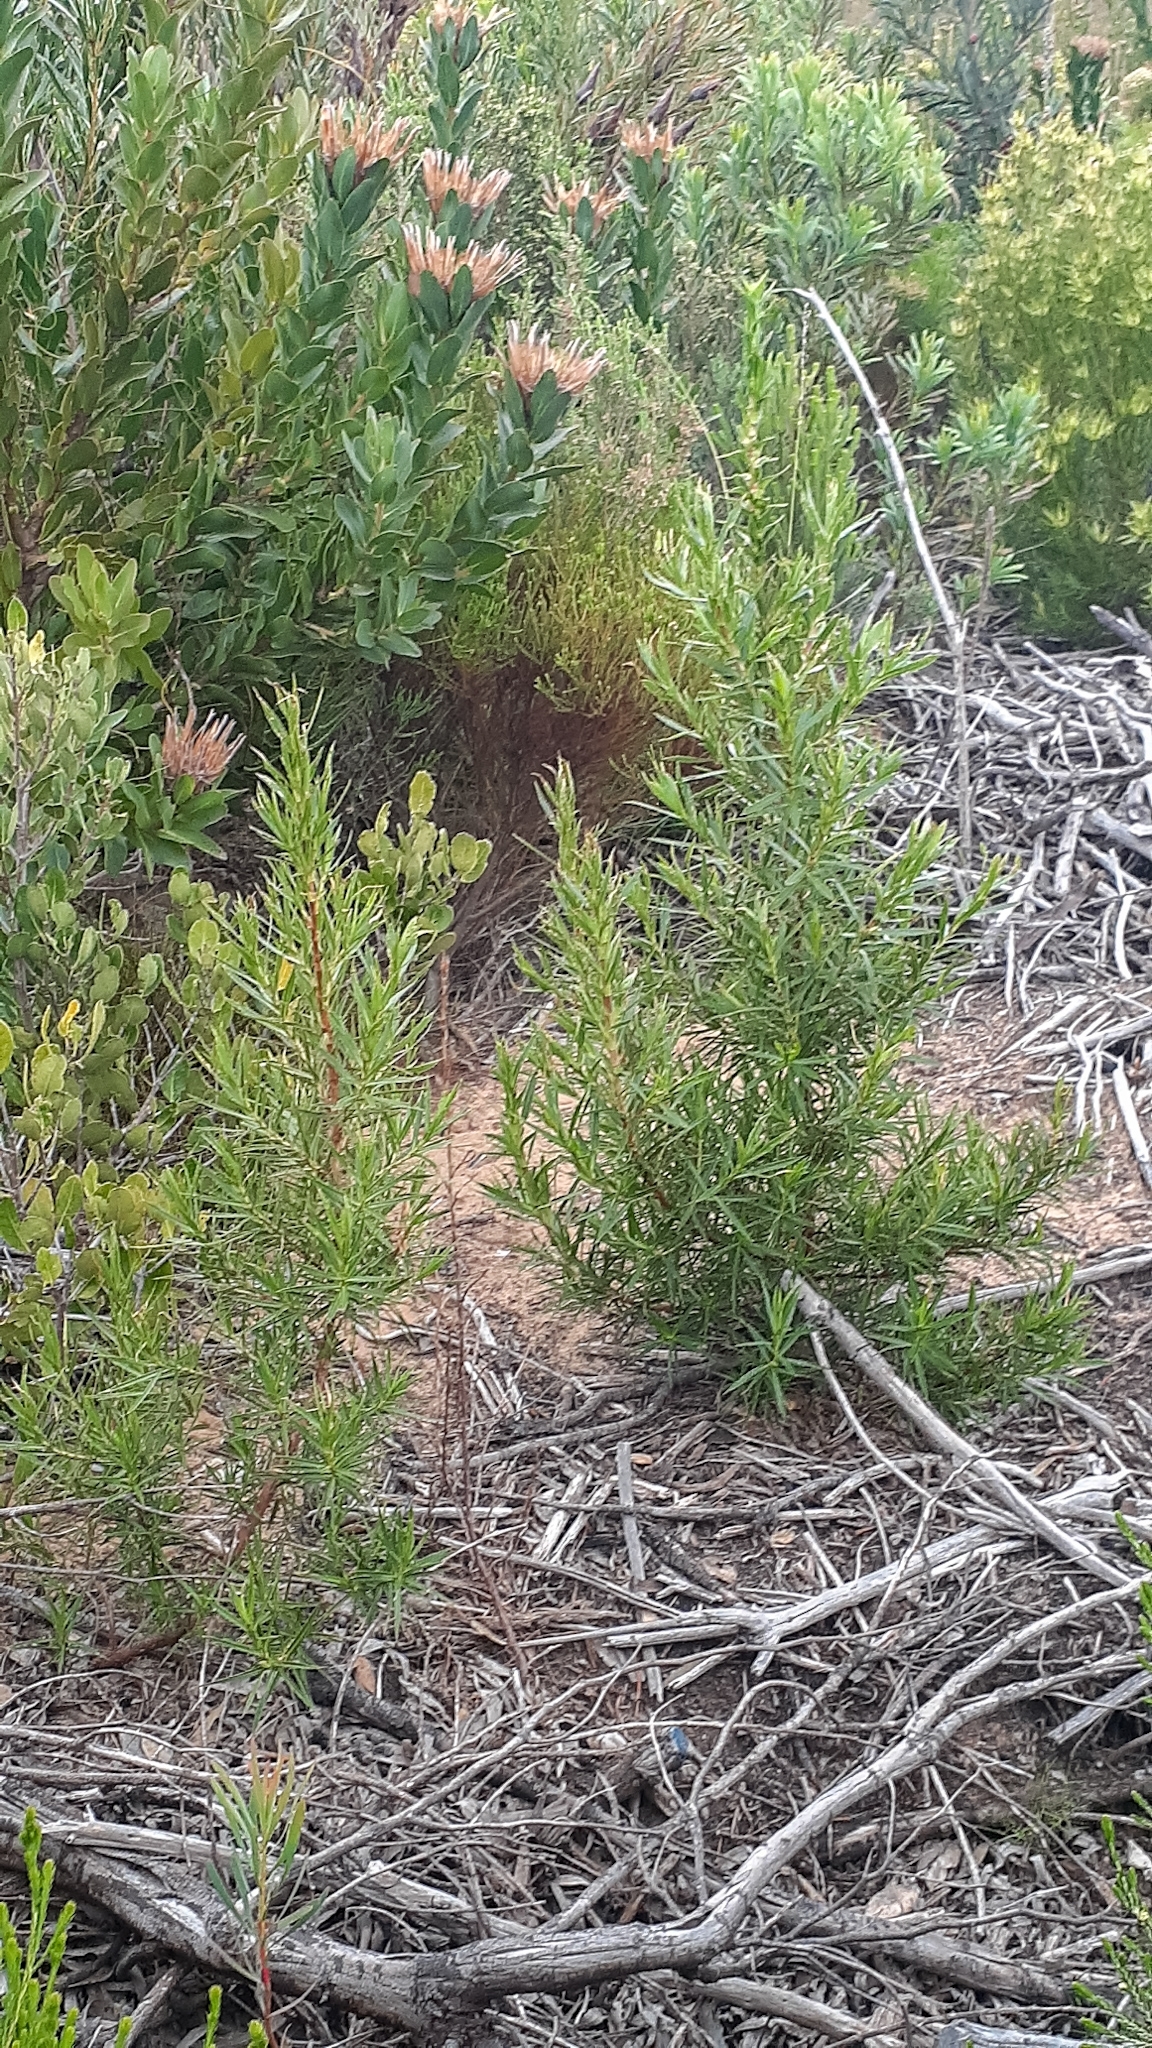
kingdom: Plantae
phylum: Tracheophyta
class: Magnoliopsida
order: Rosales
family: Rosaceae
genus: Cliffortia
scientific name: Cliffortia heterophylla
